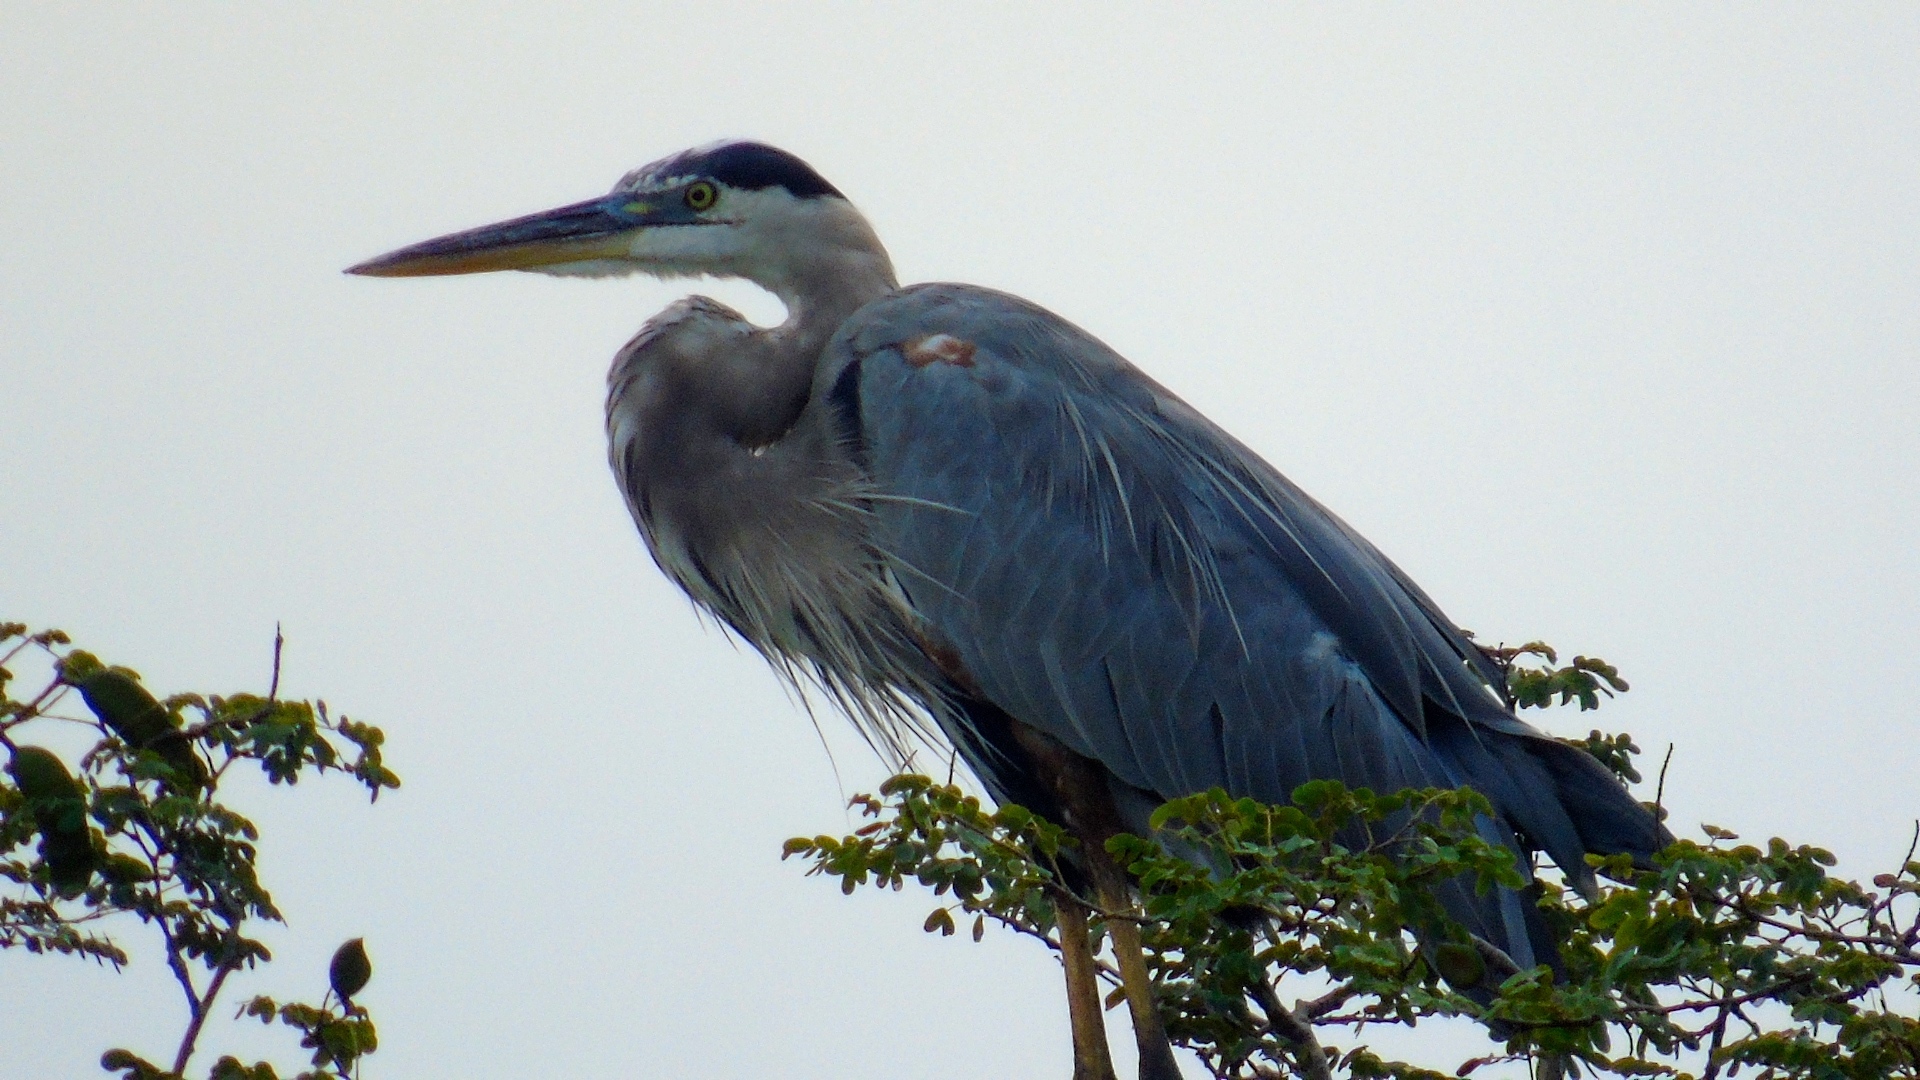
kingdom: Animalia
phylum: Chordata
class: Aves
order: Pelecaniformes
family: Ardeidae
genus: Ardea
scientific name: Ardea herodias
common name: Great blue heron
